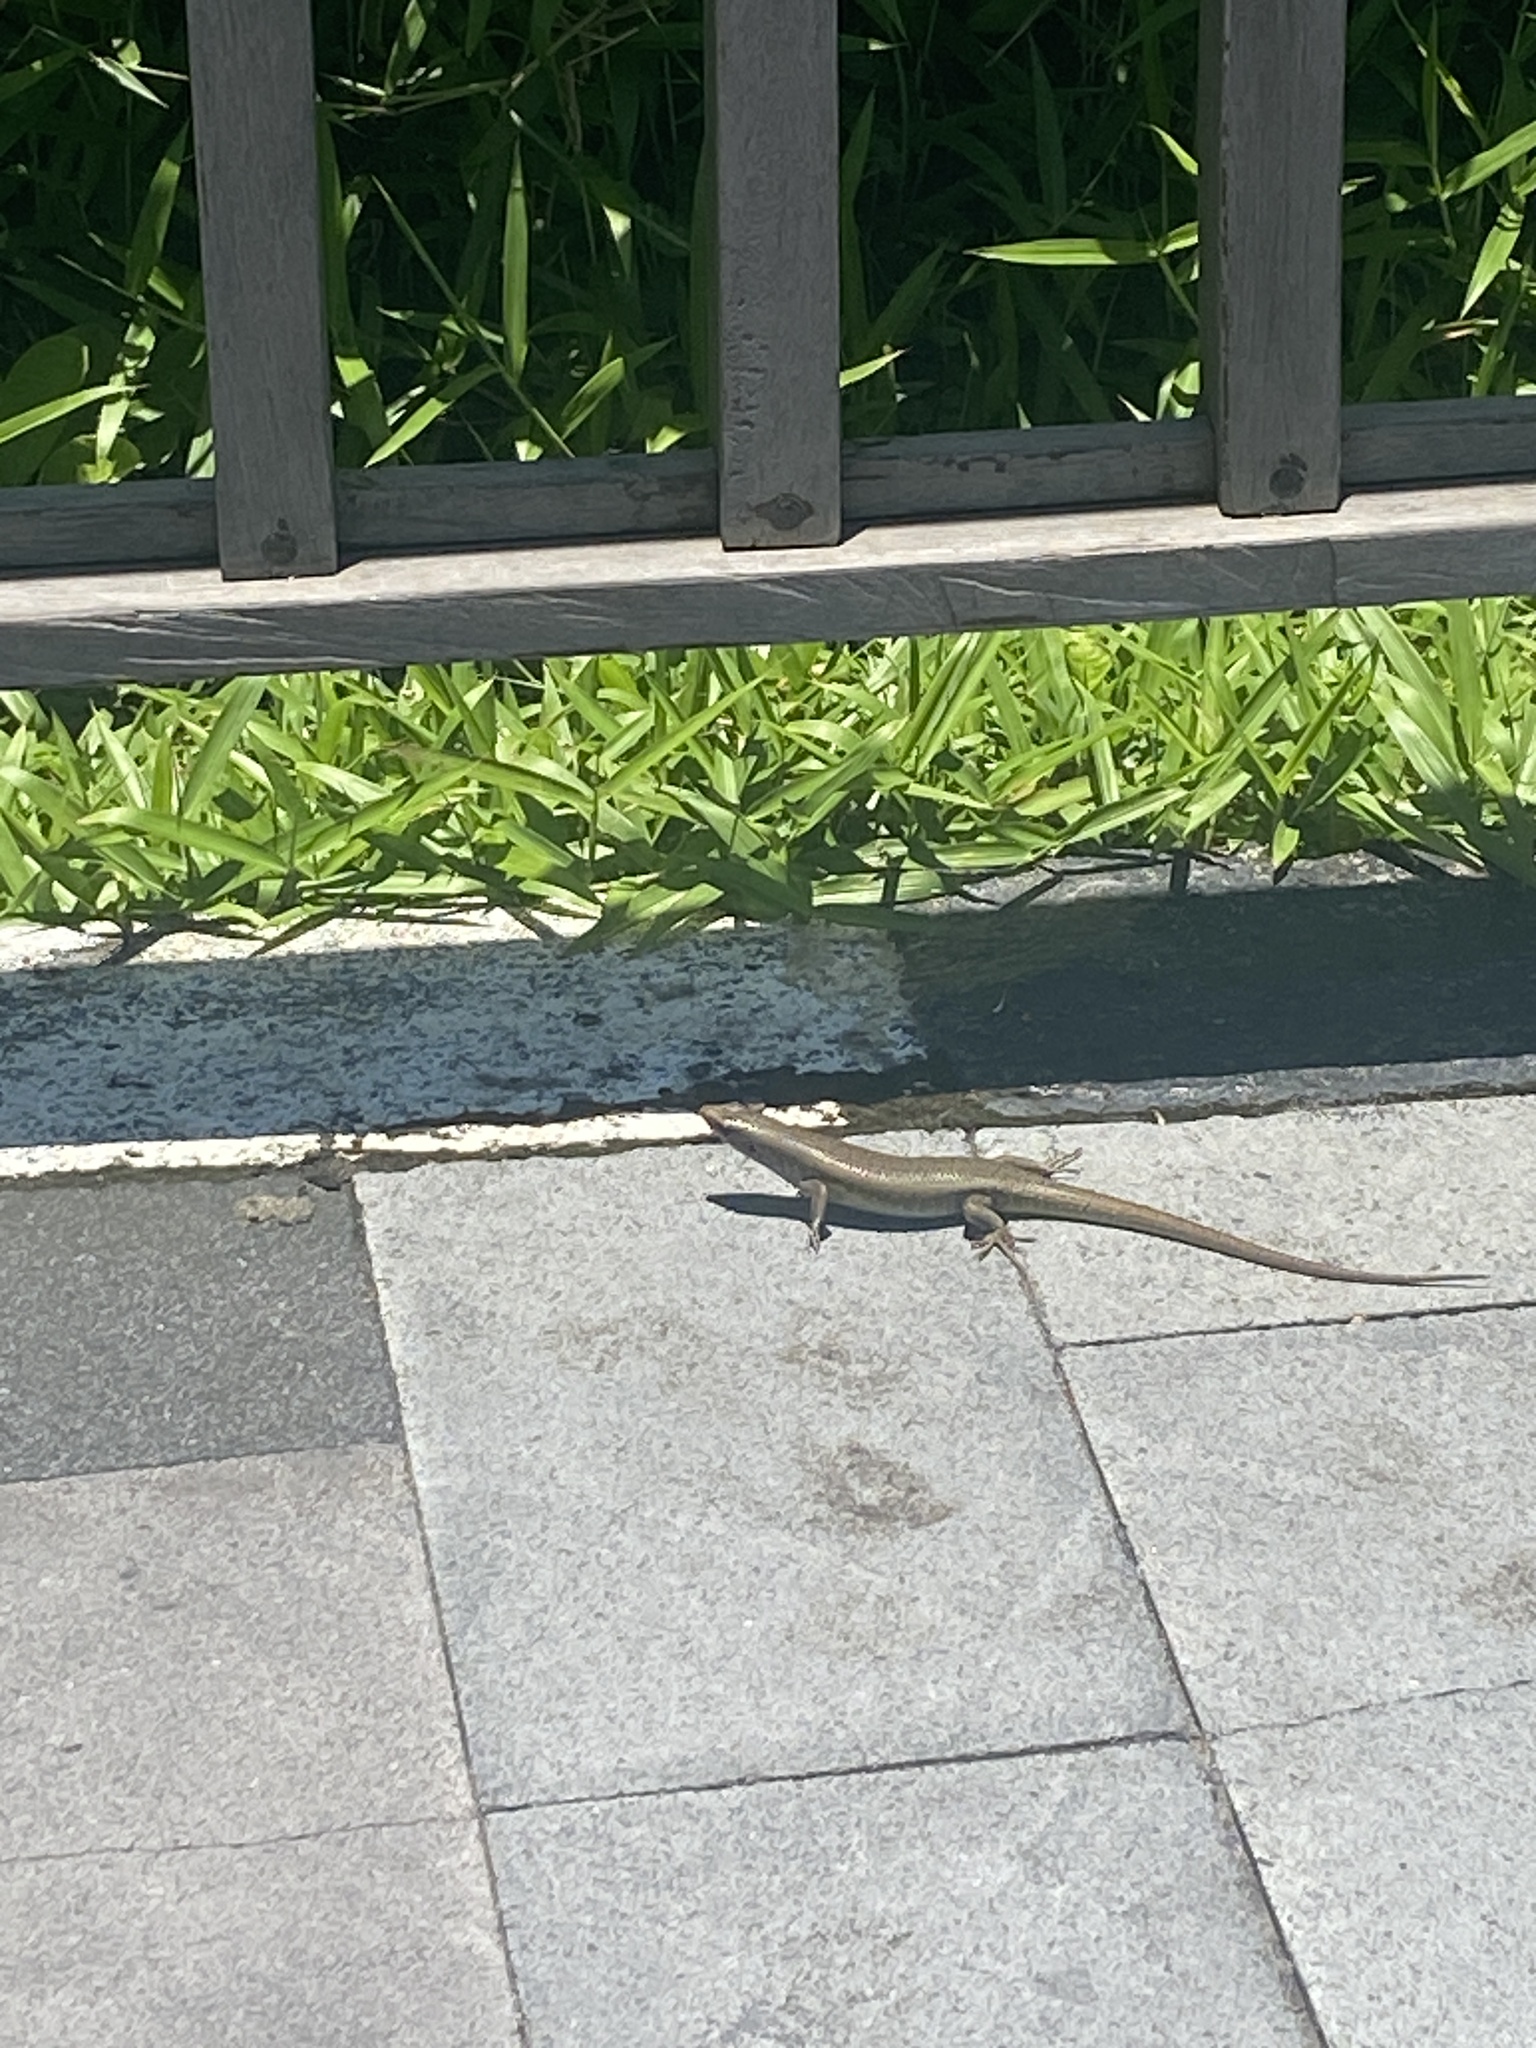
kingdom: Animalia
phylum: Chordata
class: Squamata
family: Scincidae
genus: Eutropis
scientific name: Eutropis multifasciata
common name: Common mabuya
